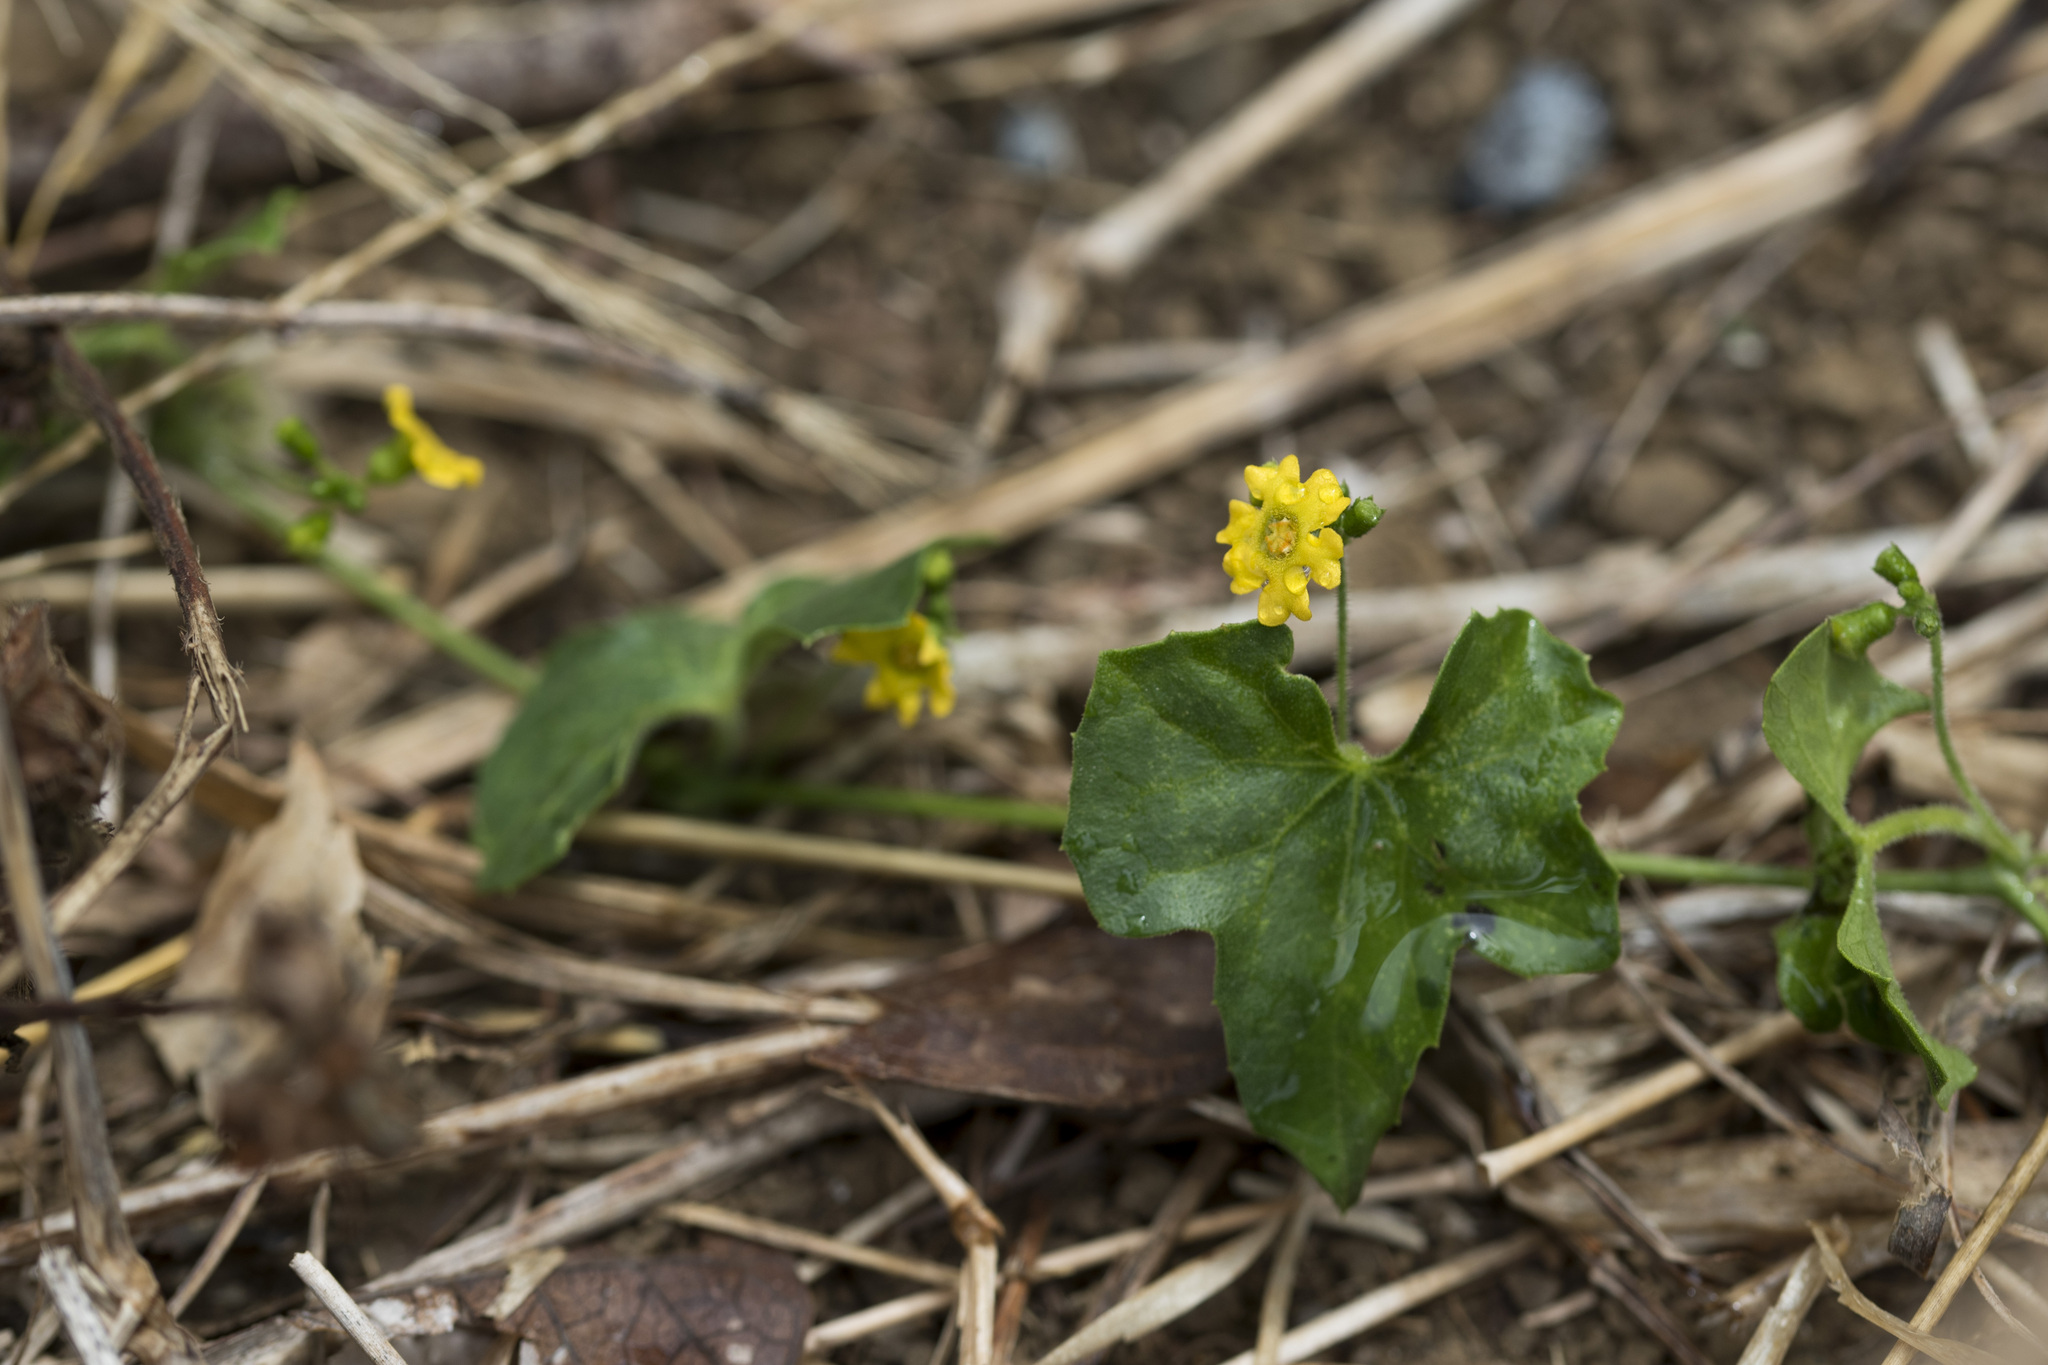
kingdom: Plantae
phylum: Tracheophyta
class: Magnoliopsida
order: Cucurbitales
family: Cucurbitaceae
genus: Melothria
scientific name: Melothria pendula
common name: Creeping-cucumber
